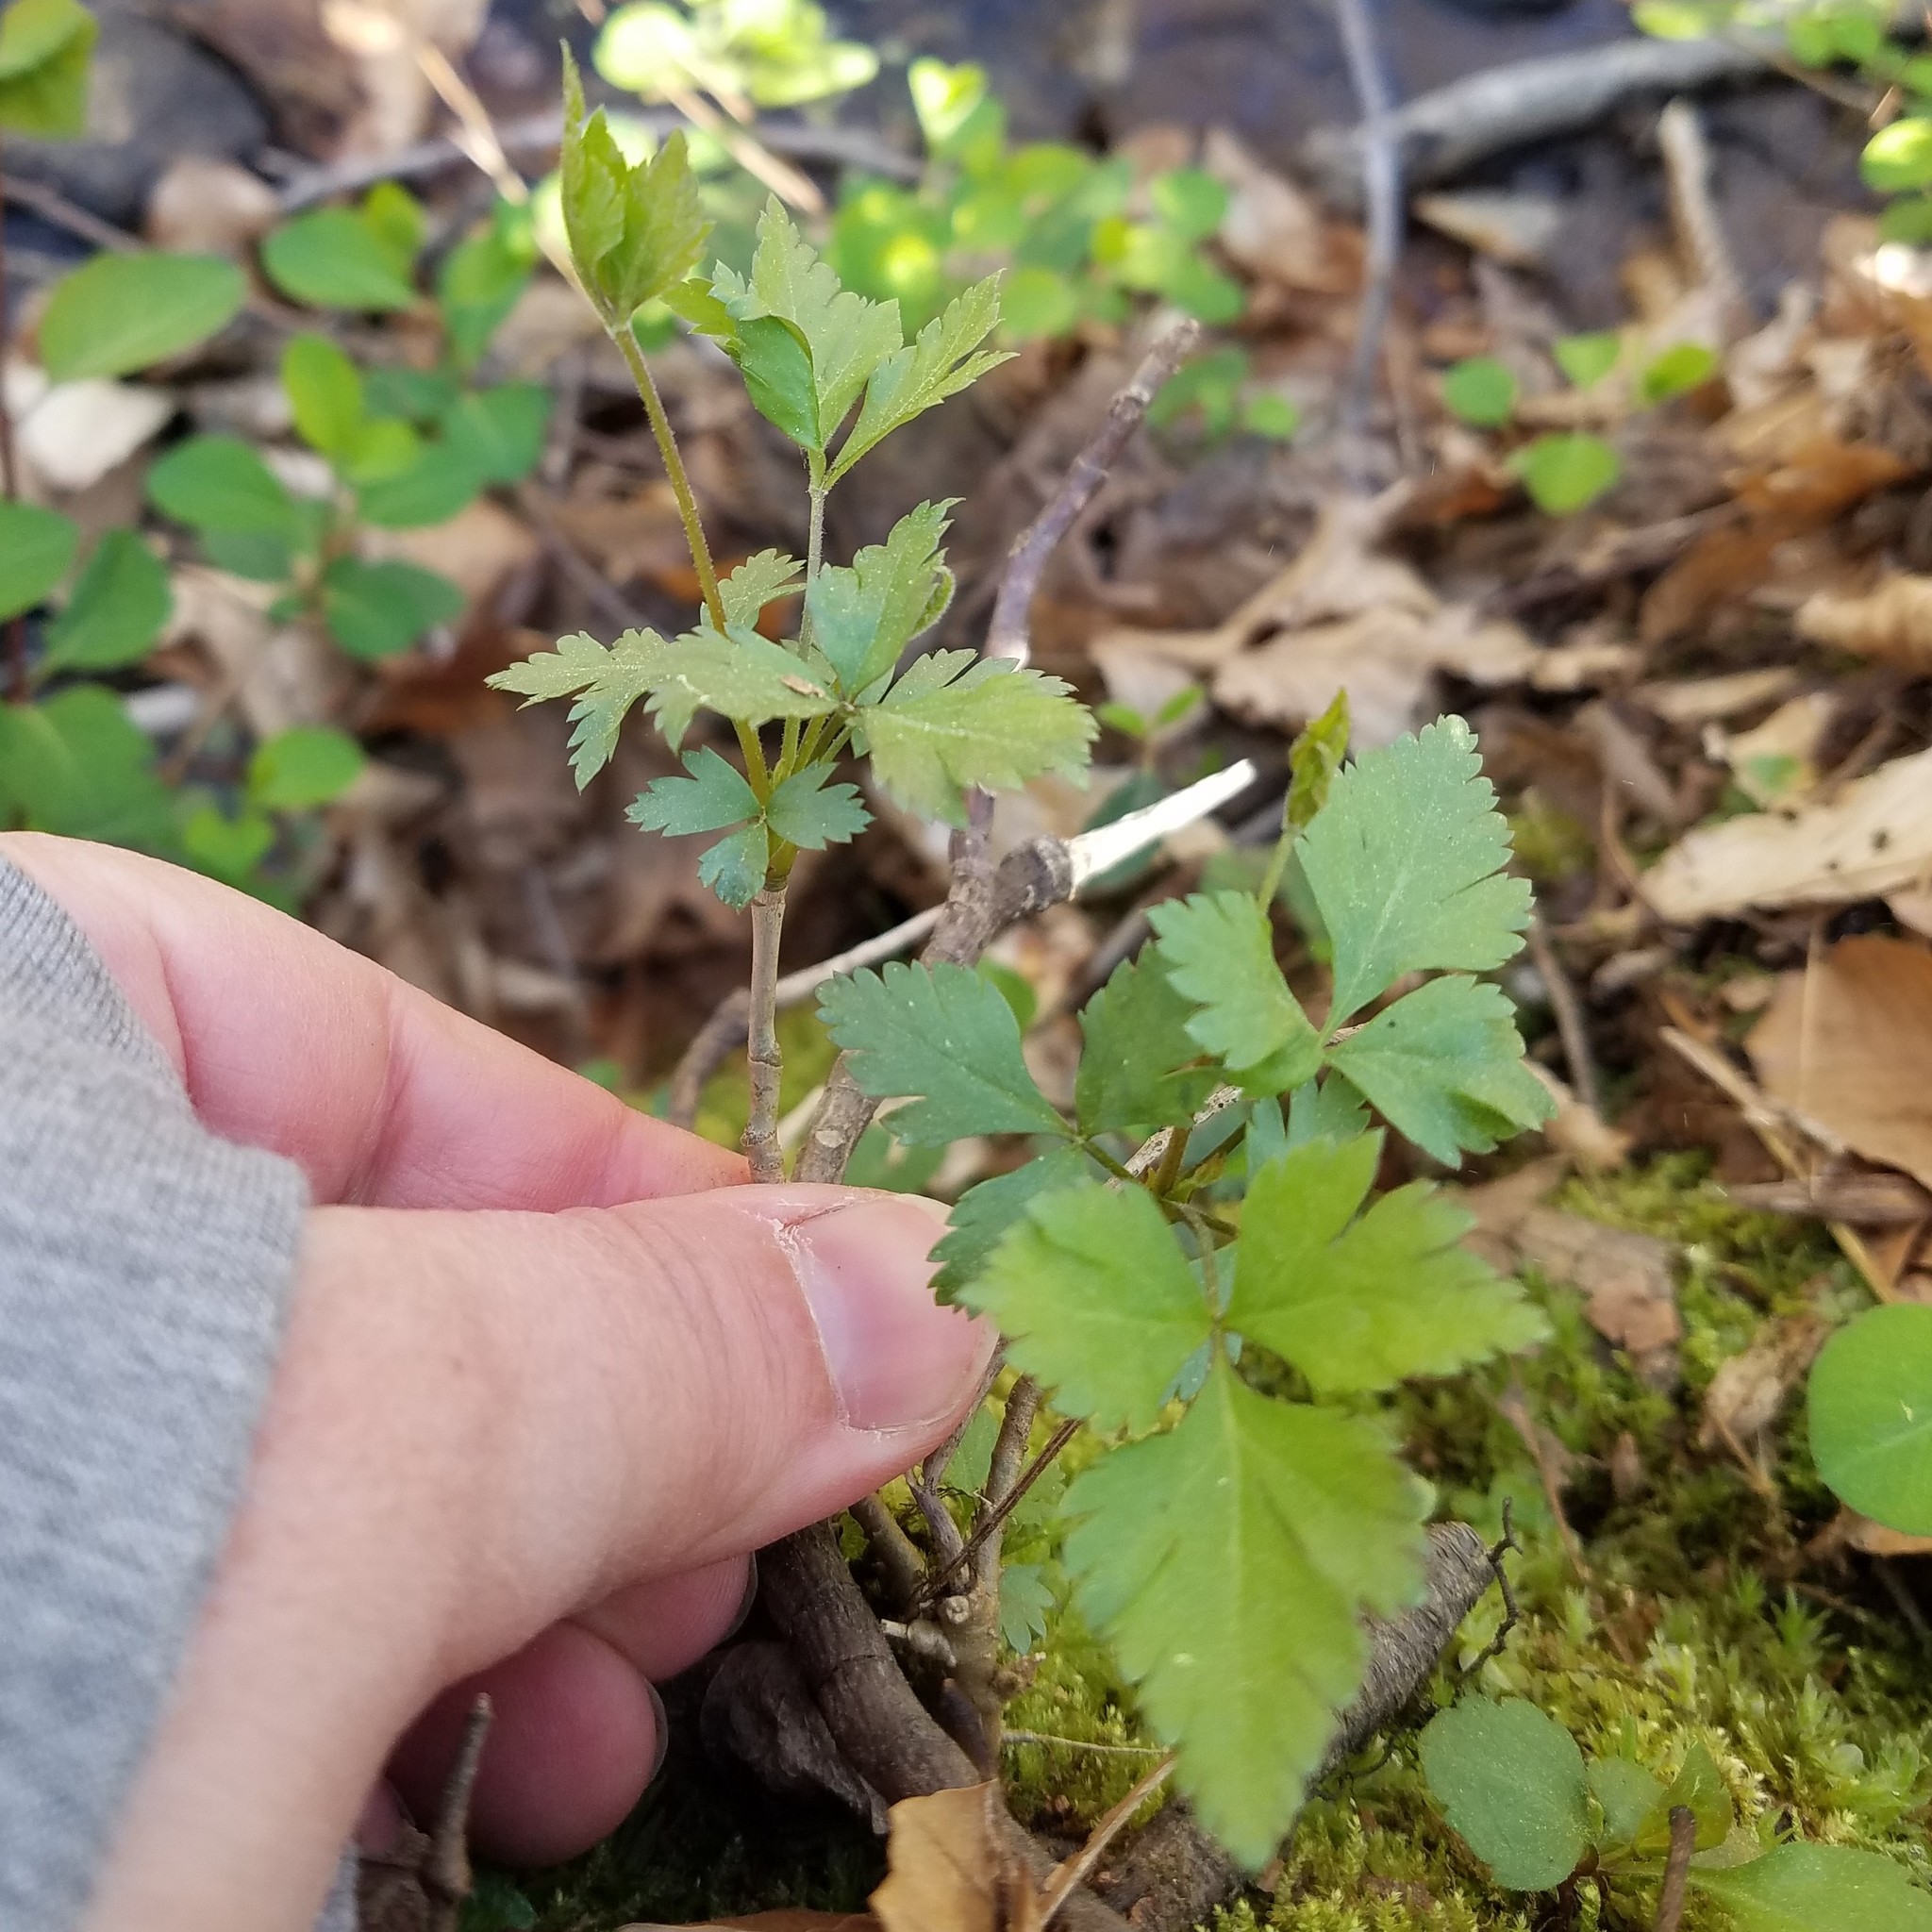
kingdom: Plantae
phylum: Tracheophyta
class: Magnoliopsida
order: Ranunculales
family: Ranunculaceae
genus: Xanthorhiza
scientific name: Xanthorhiza simplicissima
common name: Yellowroot
